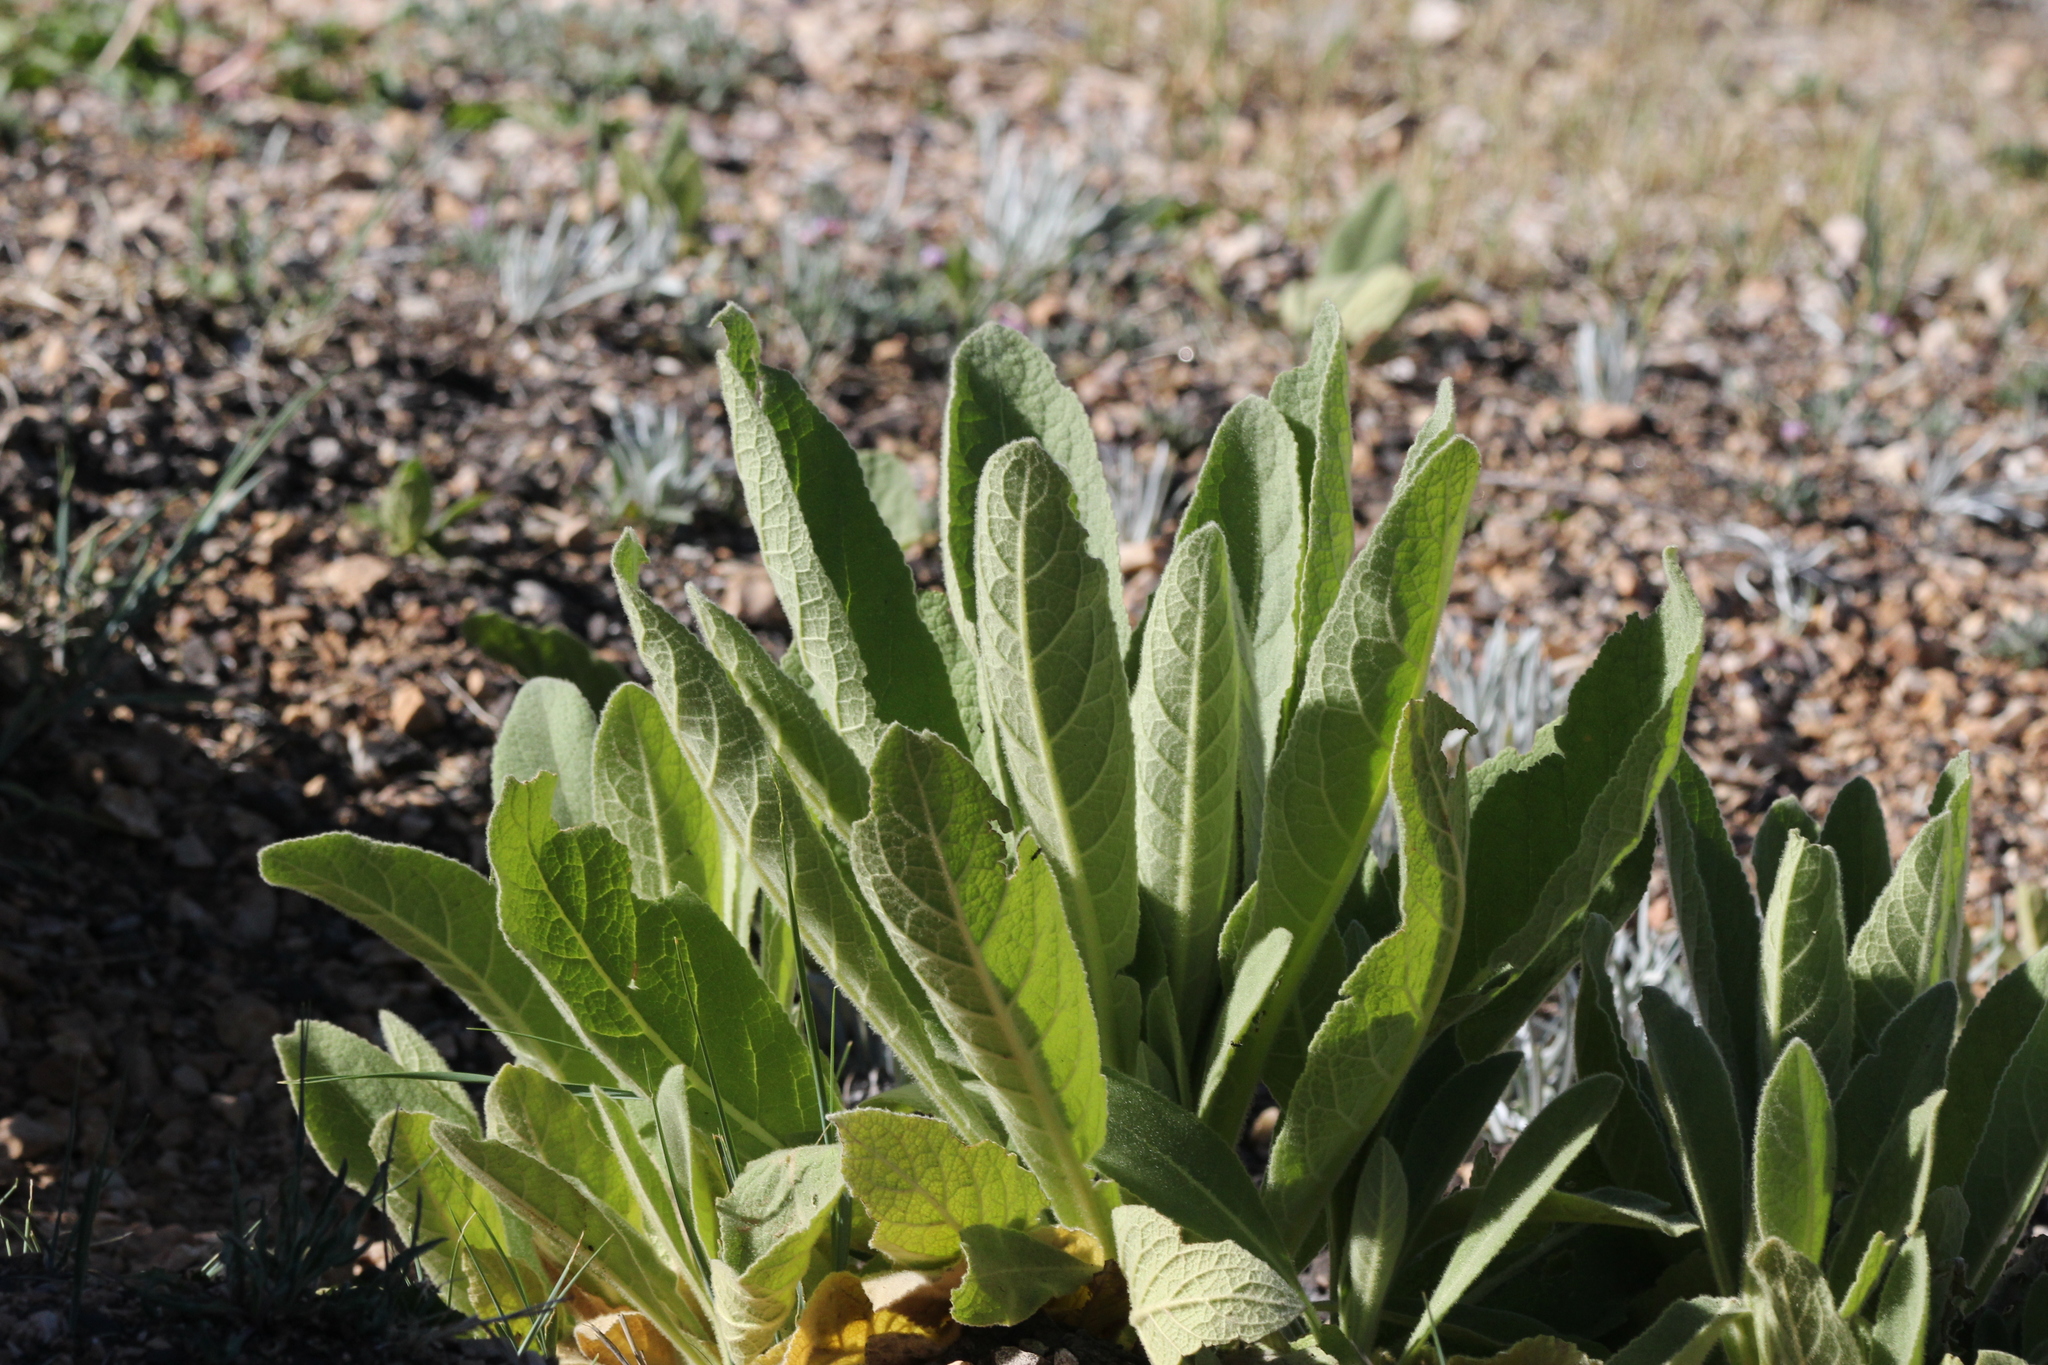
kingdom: Plantae
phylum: Tracheophyta
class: Magnoliopsida
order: Lamiales
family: Scrophulariaceae
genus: Verbascum
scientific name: Verbascum thapsus
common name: Common mullein
